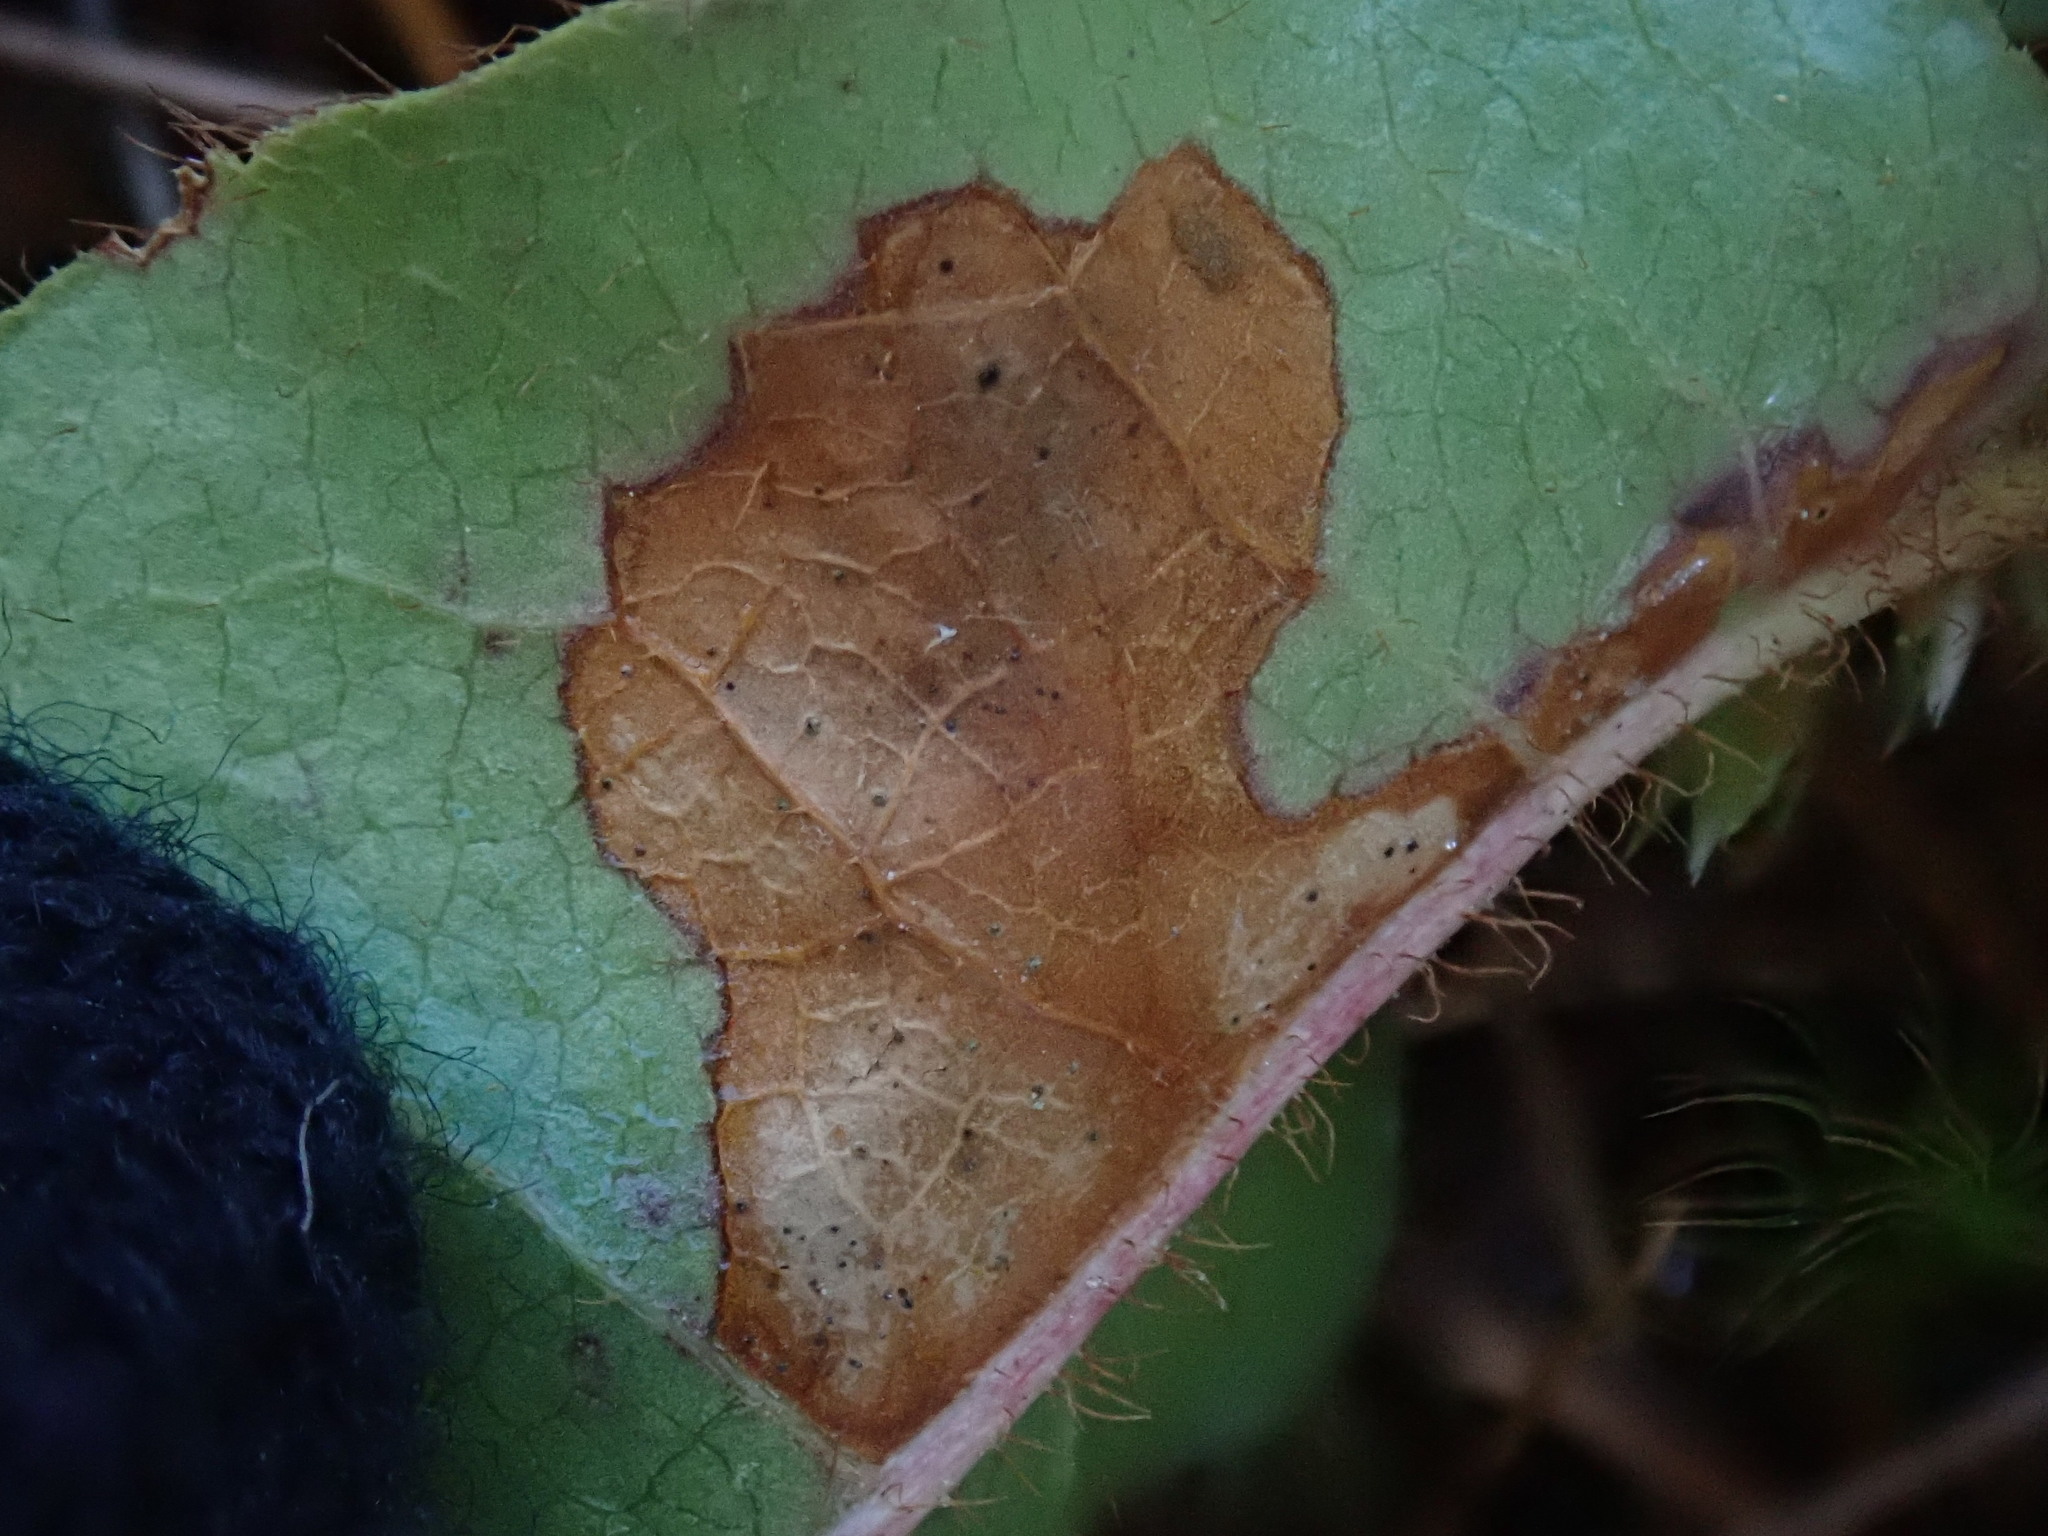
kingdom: Animalia
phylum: Arthropoda
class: Insecta
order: Coleoptera
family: Buprestidae
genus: Brachys
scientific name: Brachys
